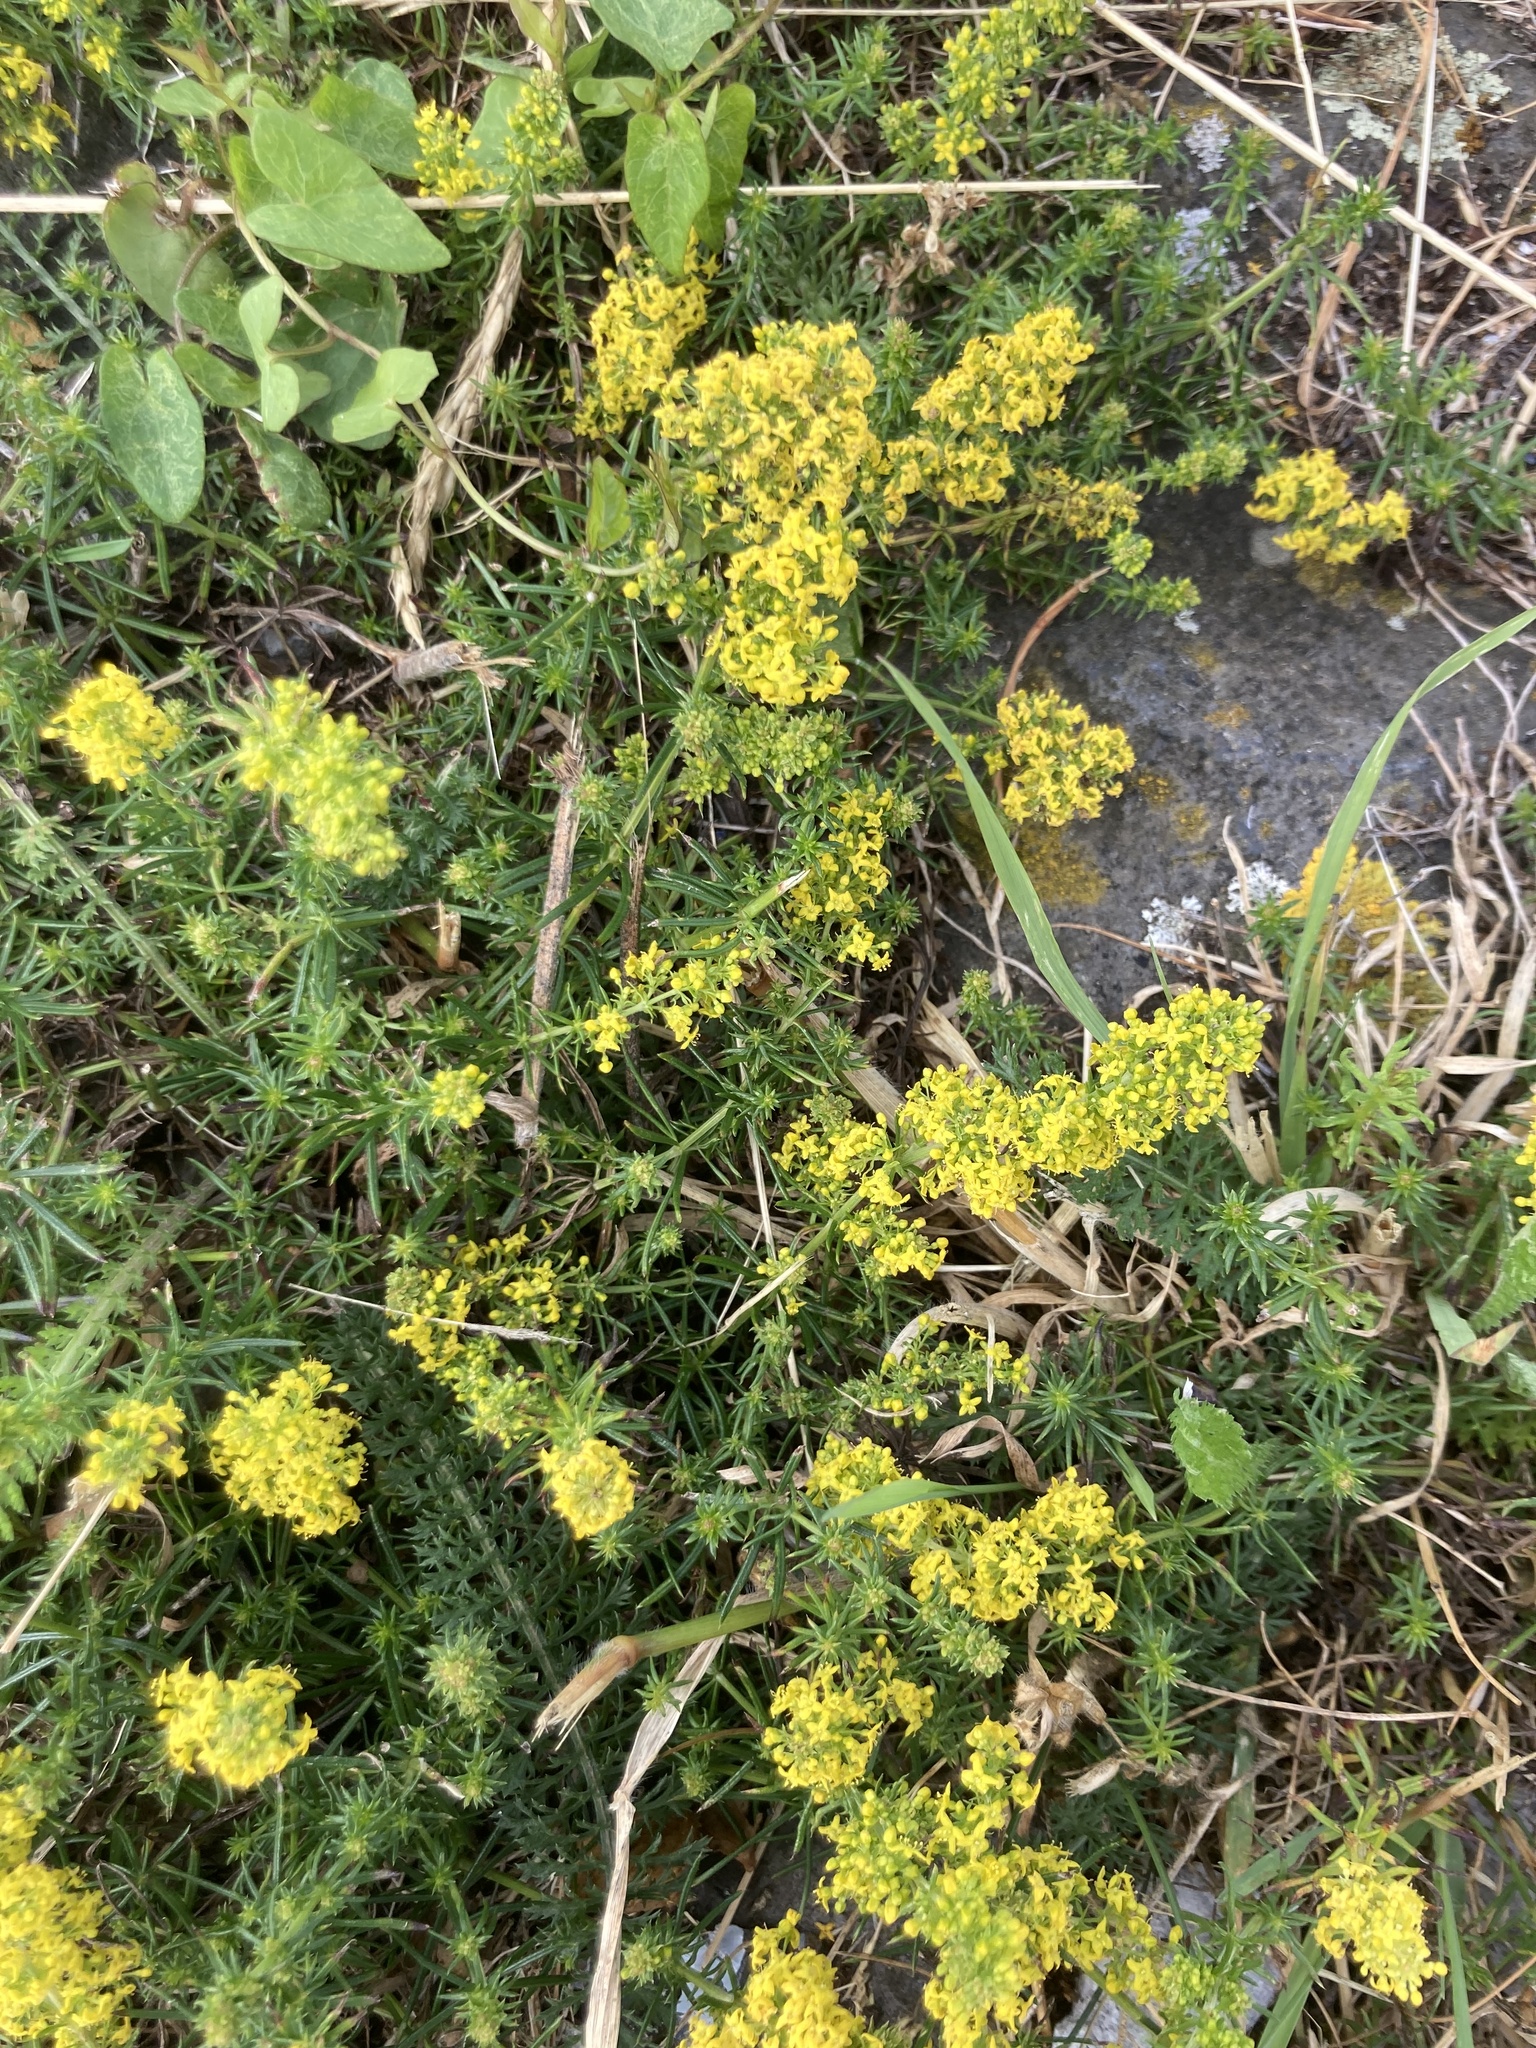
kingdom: Plantae
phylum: Tracheophyta
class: Magnoliopsida
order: Gentianales
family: Rubiaceae
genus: Galium
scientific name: Galium verum
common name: Lady's bedstraw
